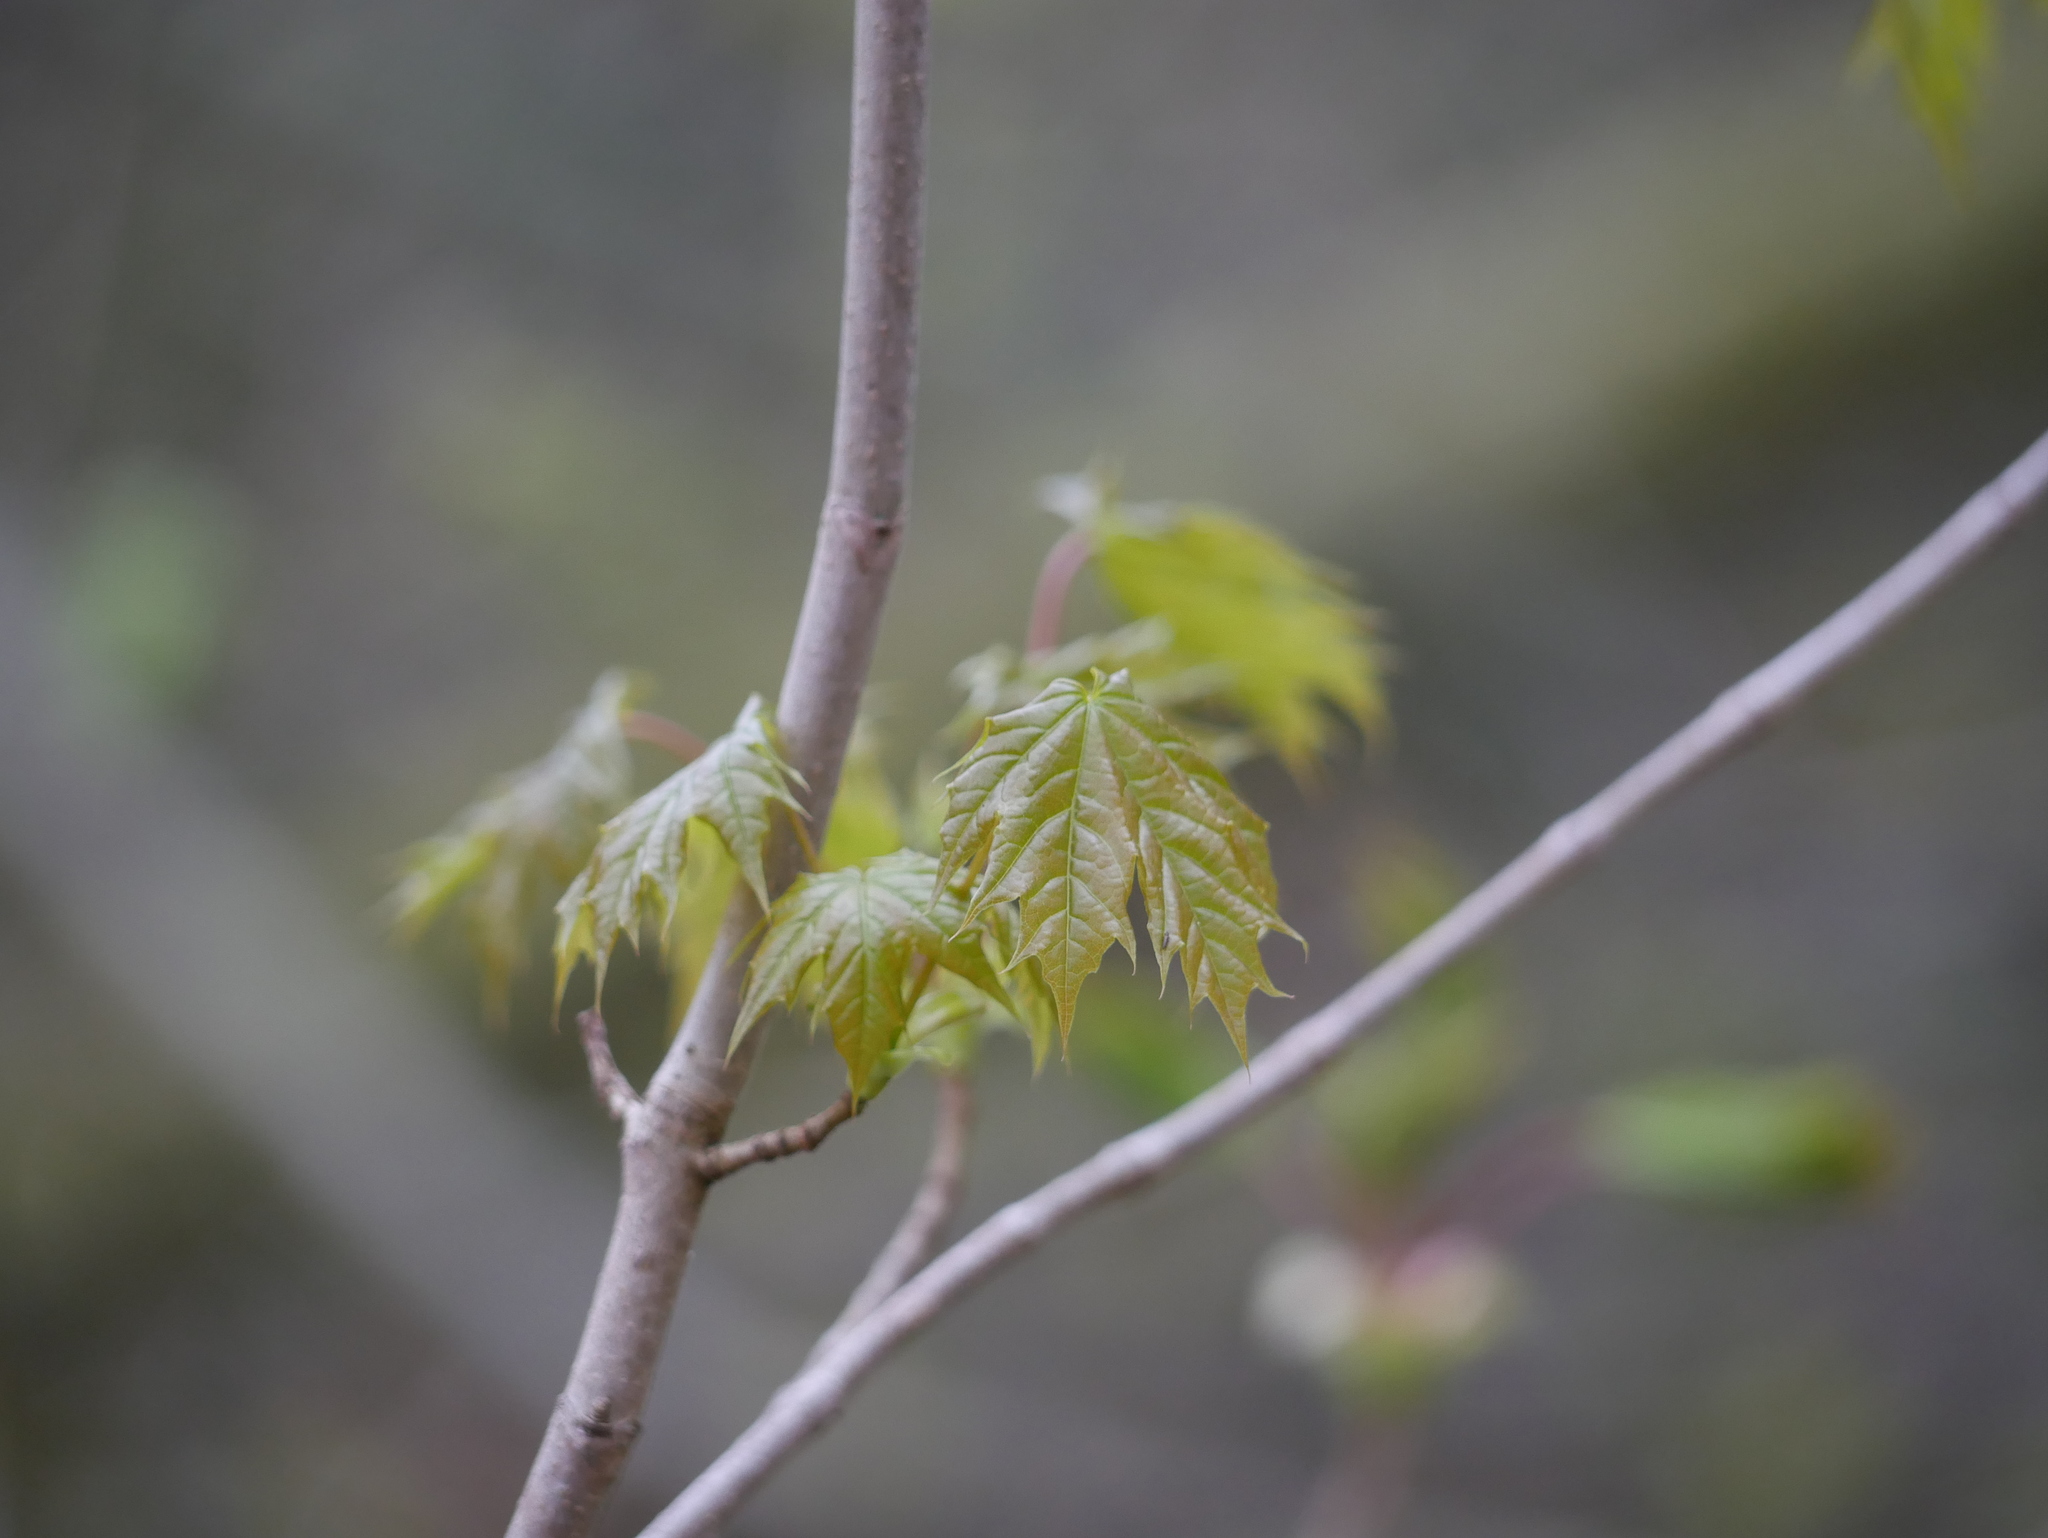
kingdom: Plantae
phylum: Tracheophyta
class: Magnoliopsida
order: Sapindales
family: Sapindaceae
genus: Acer
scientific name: Acer platanoides
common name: Norway maple
